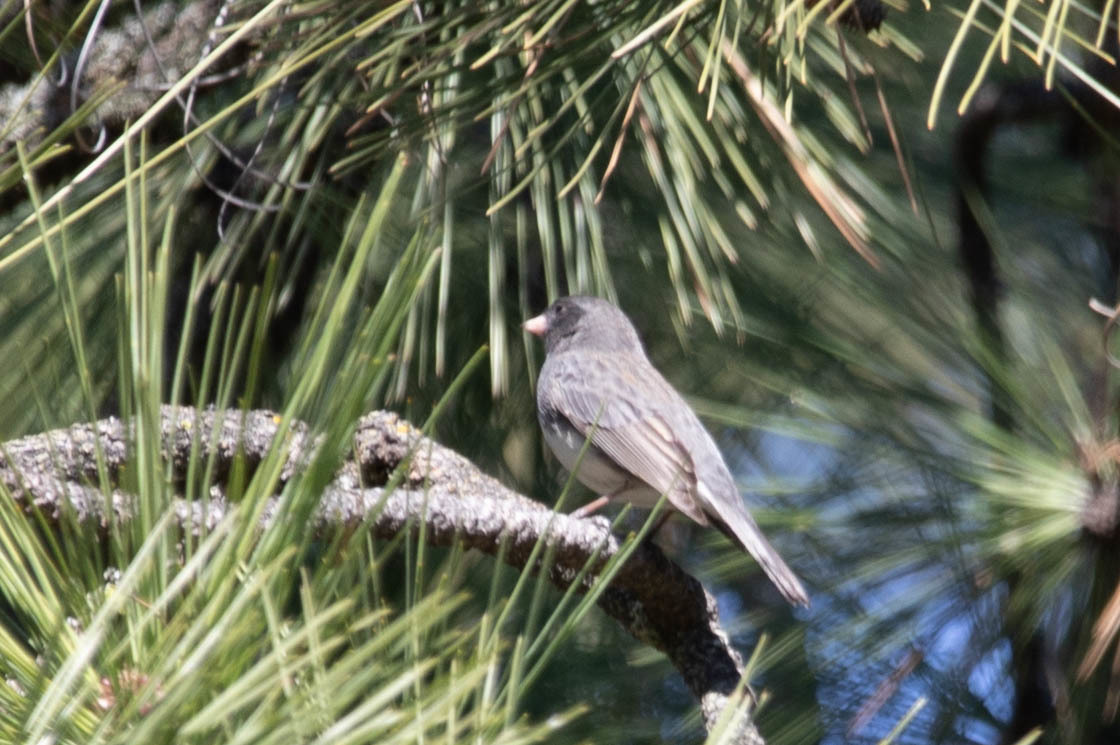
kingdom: Animalia
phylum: Chordata
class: Aves
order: Passeriformes
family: Passerellidae
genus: Junco
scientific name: Junco hyemalis
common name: Dark-eyed junco
